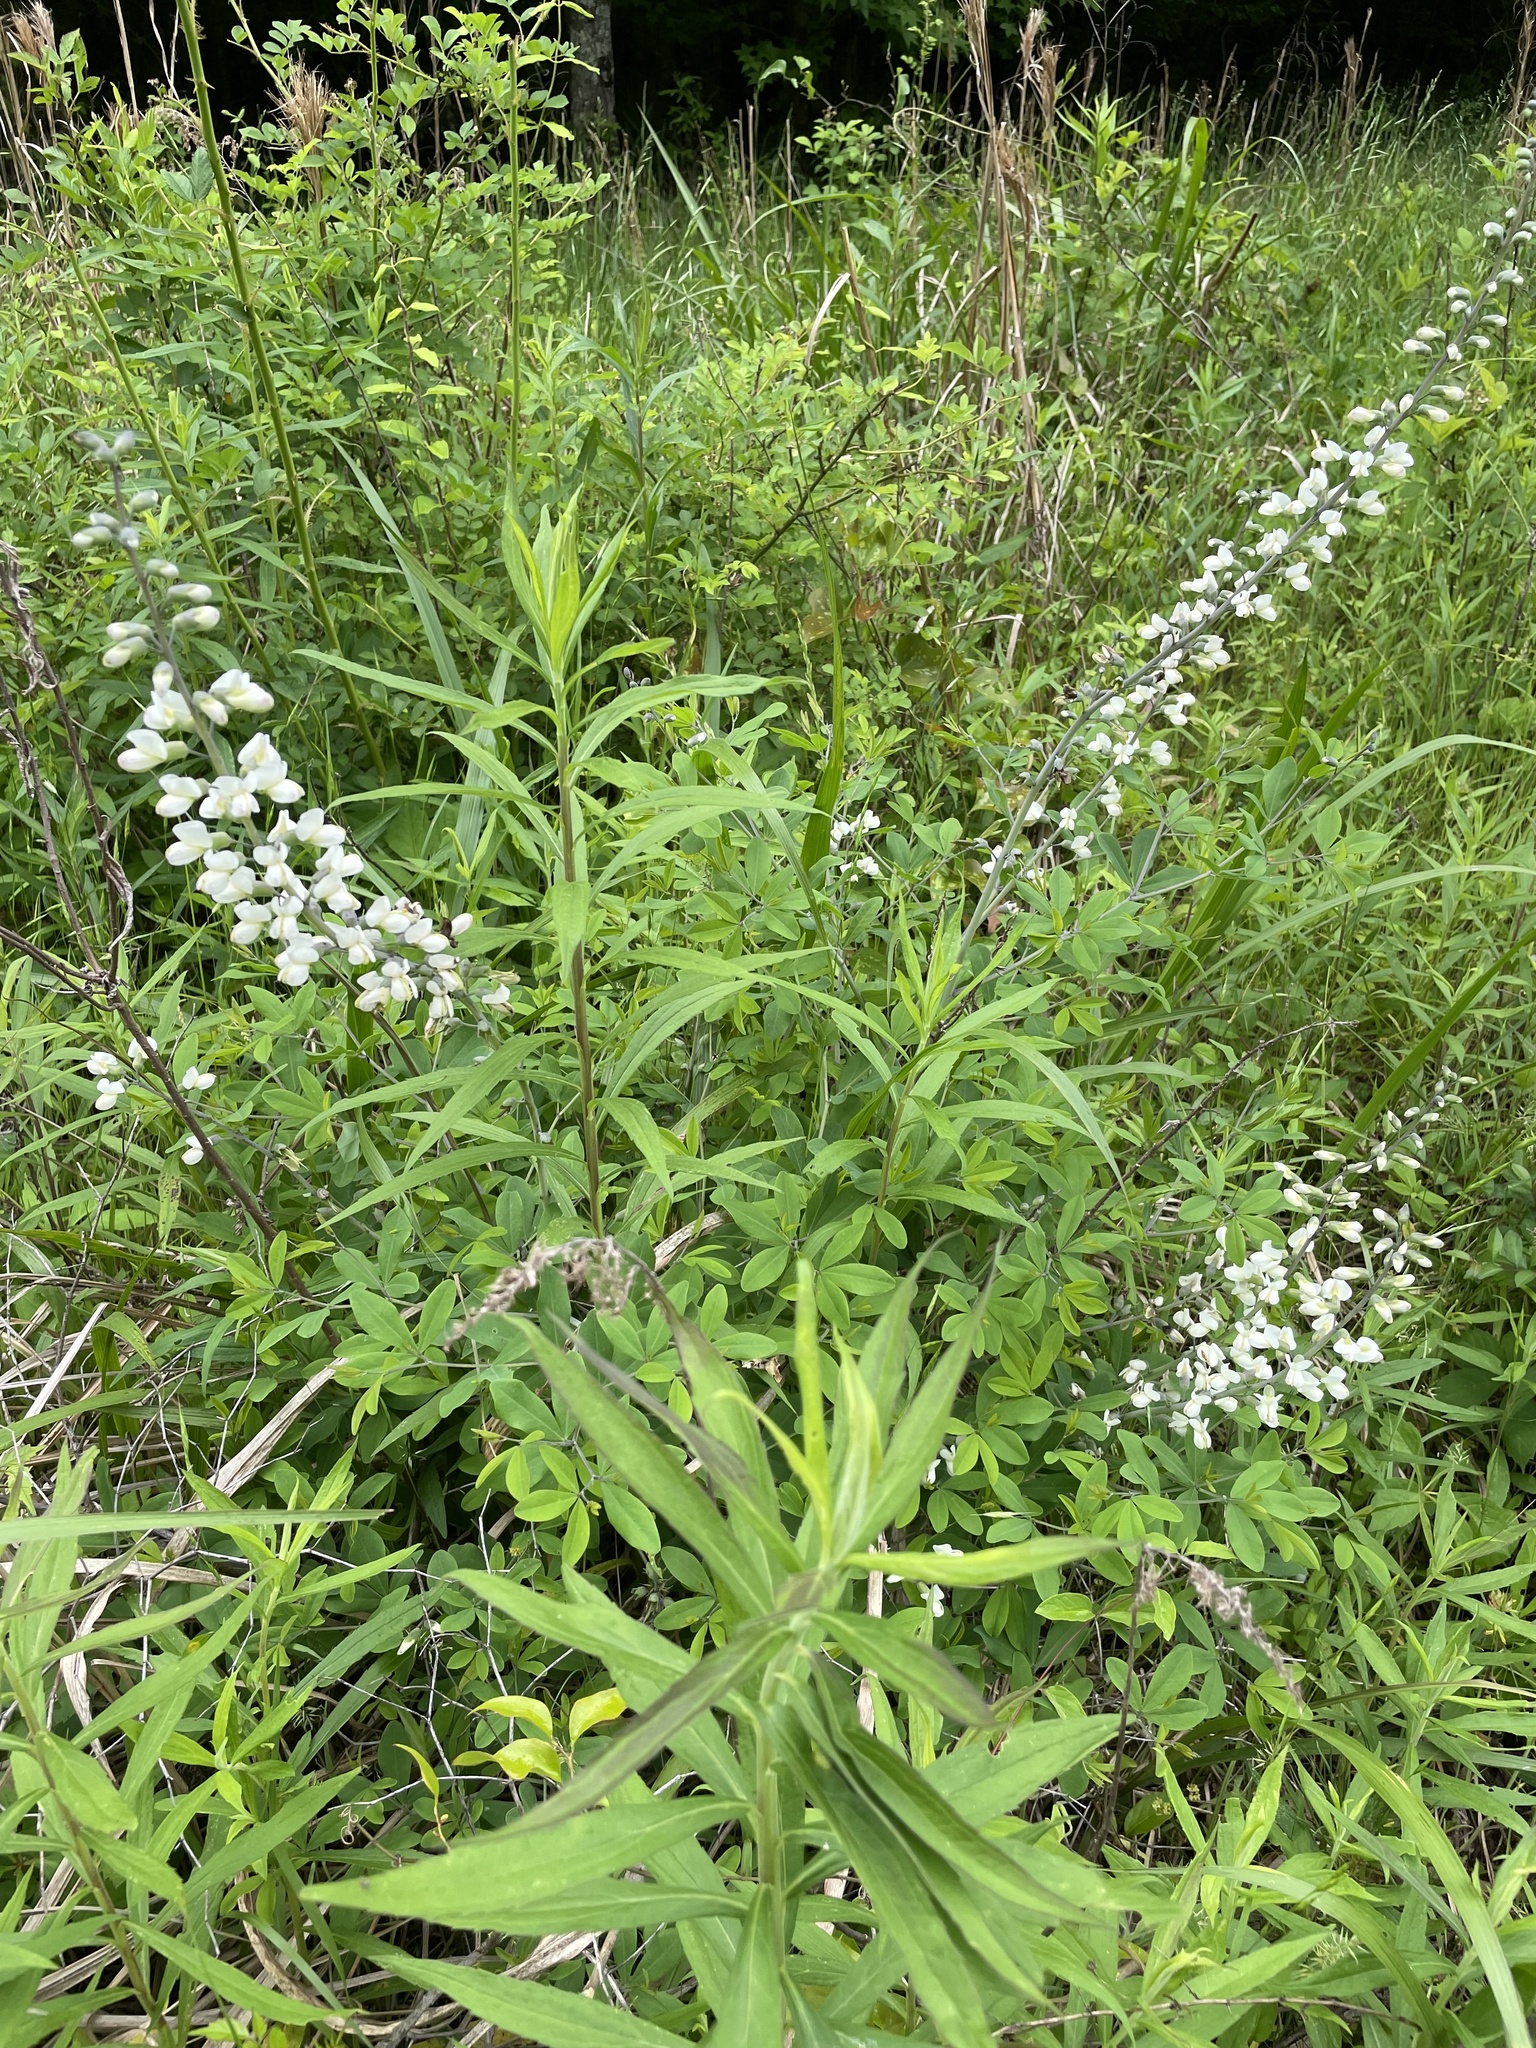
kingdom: Plantae
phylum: Tracheophyta
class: Magnoliopsida
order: Fabales
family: Fabaceae
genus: Baptisia
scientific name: Baptisia alba
